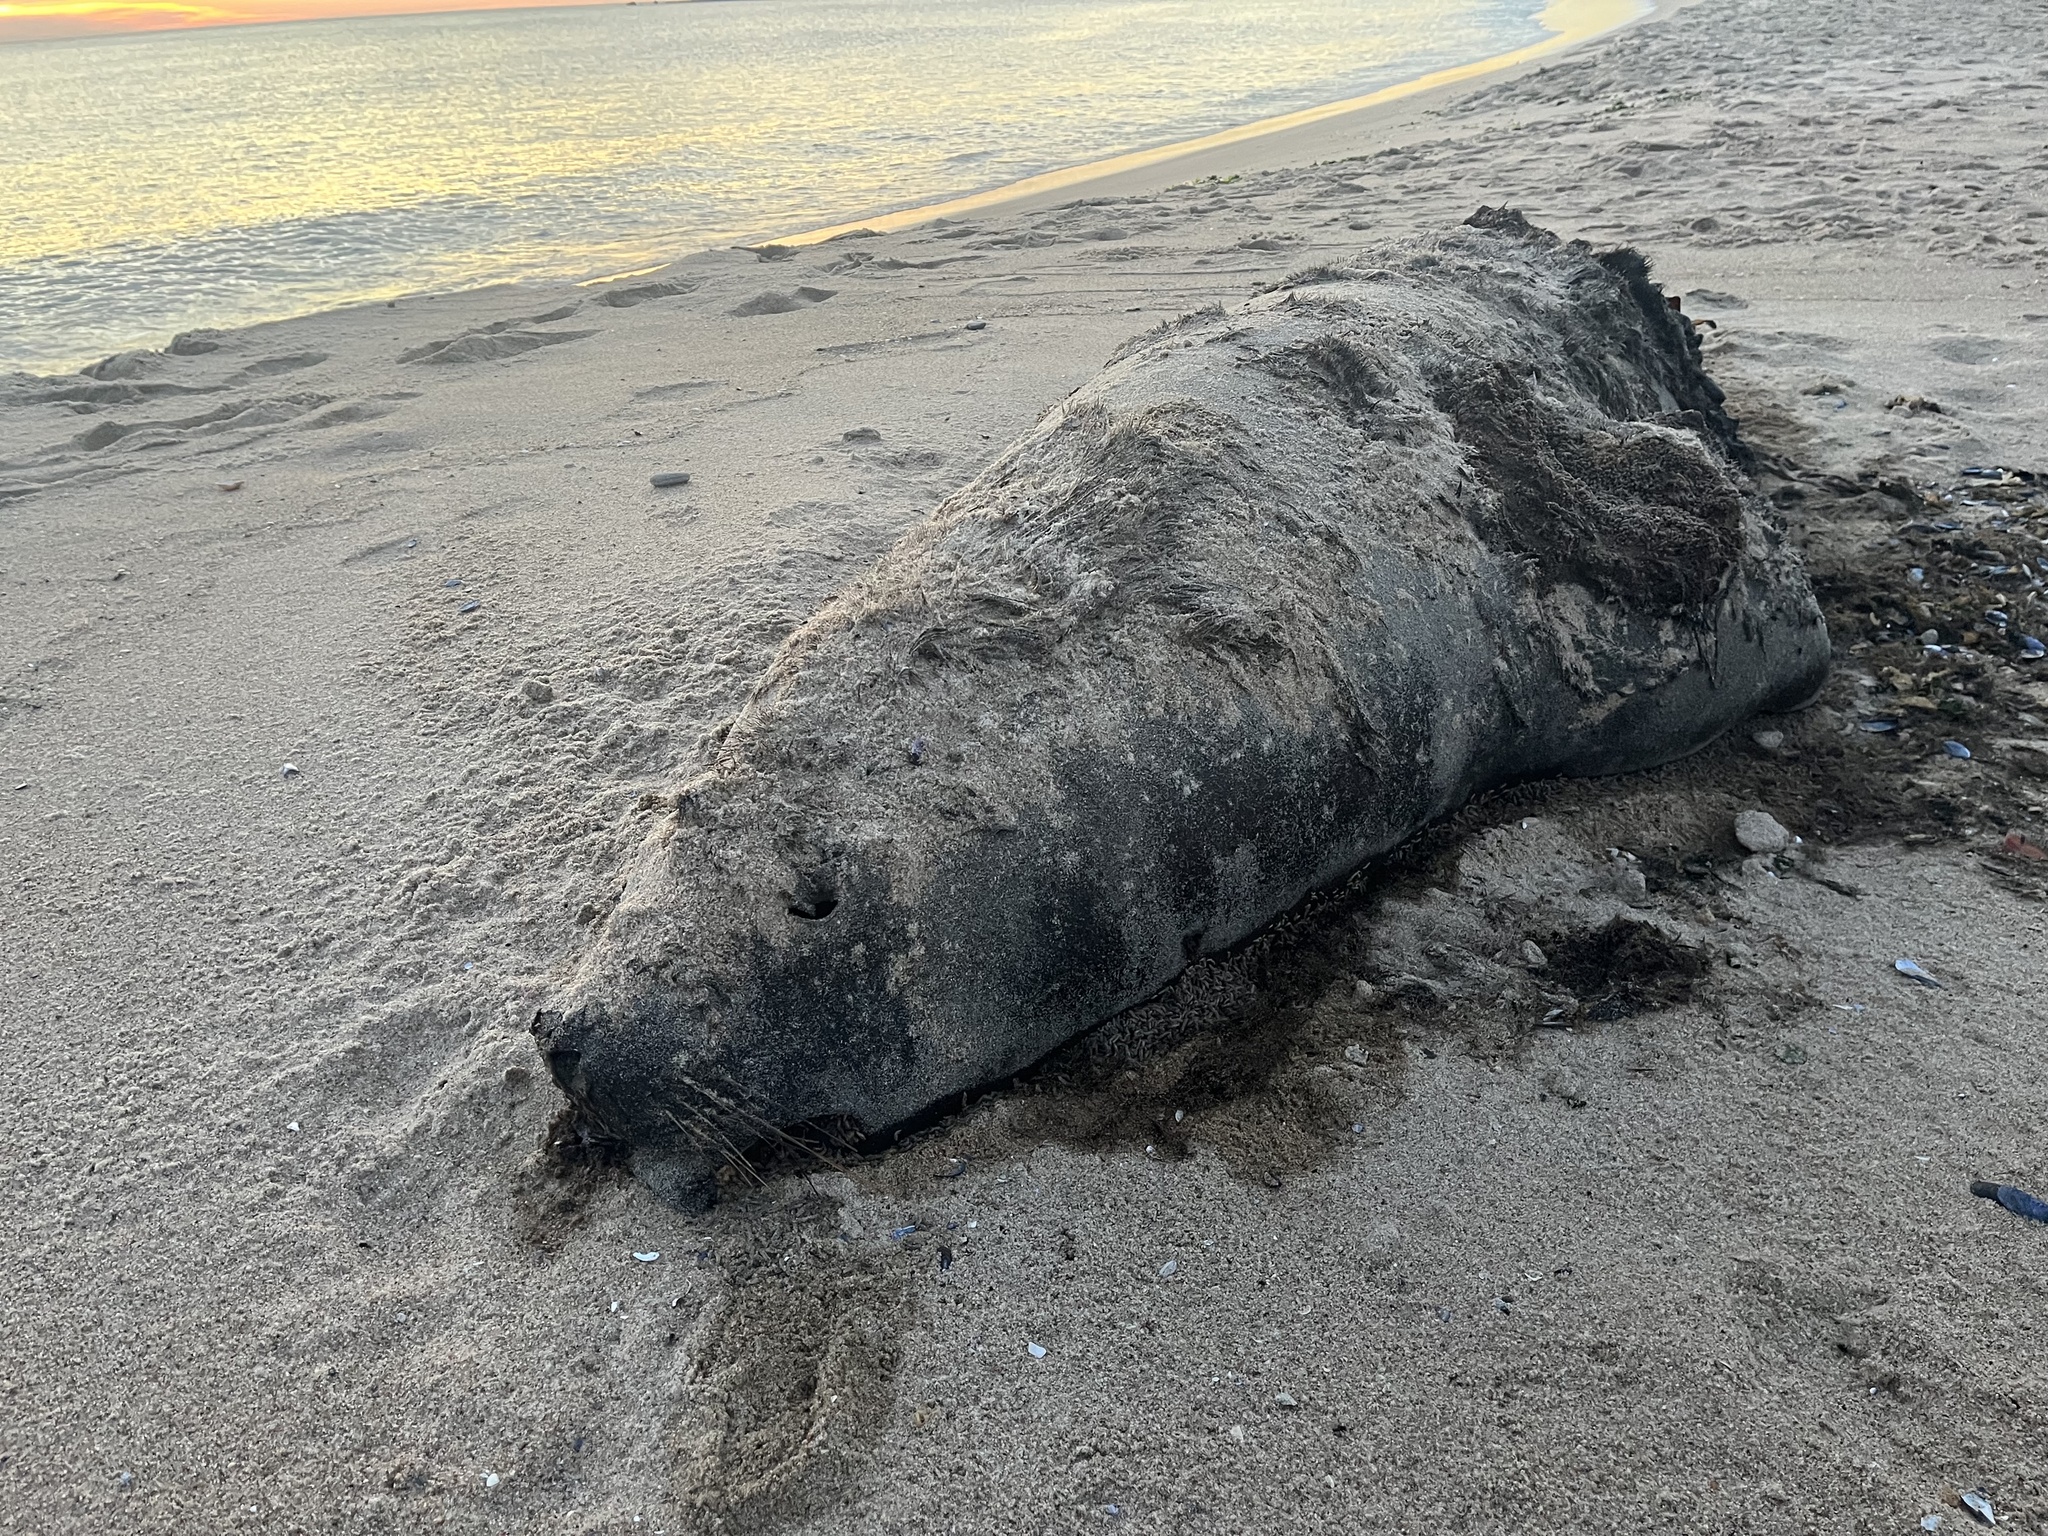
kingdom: Animalia
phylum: Chordata
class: Mammalia
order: Carnivora
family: Otariidae
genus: Otaria
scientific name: Otaria byronia
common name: South american sea lion
